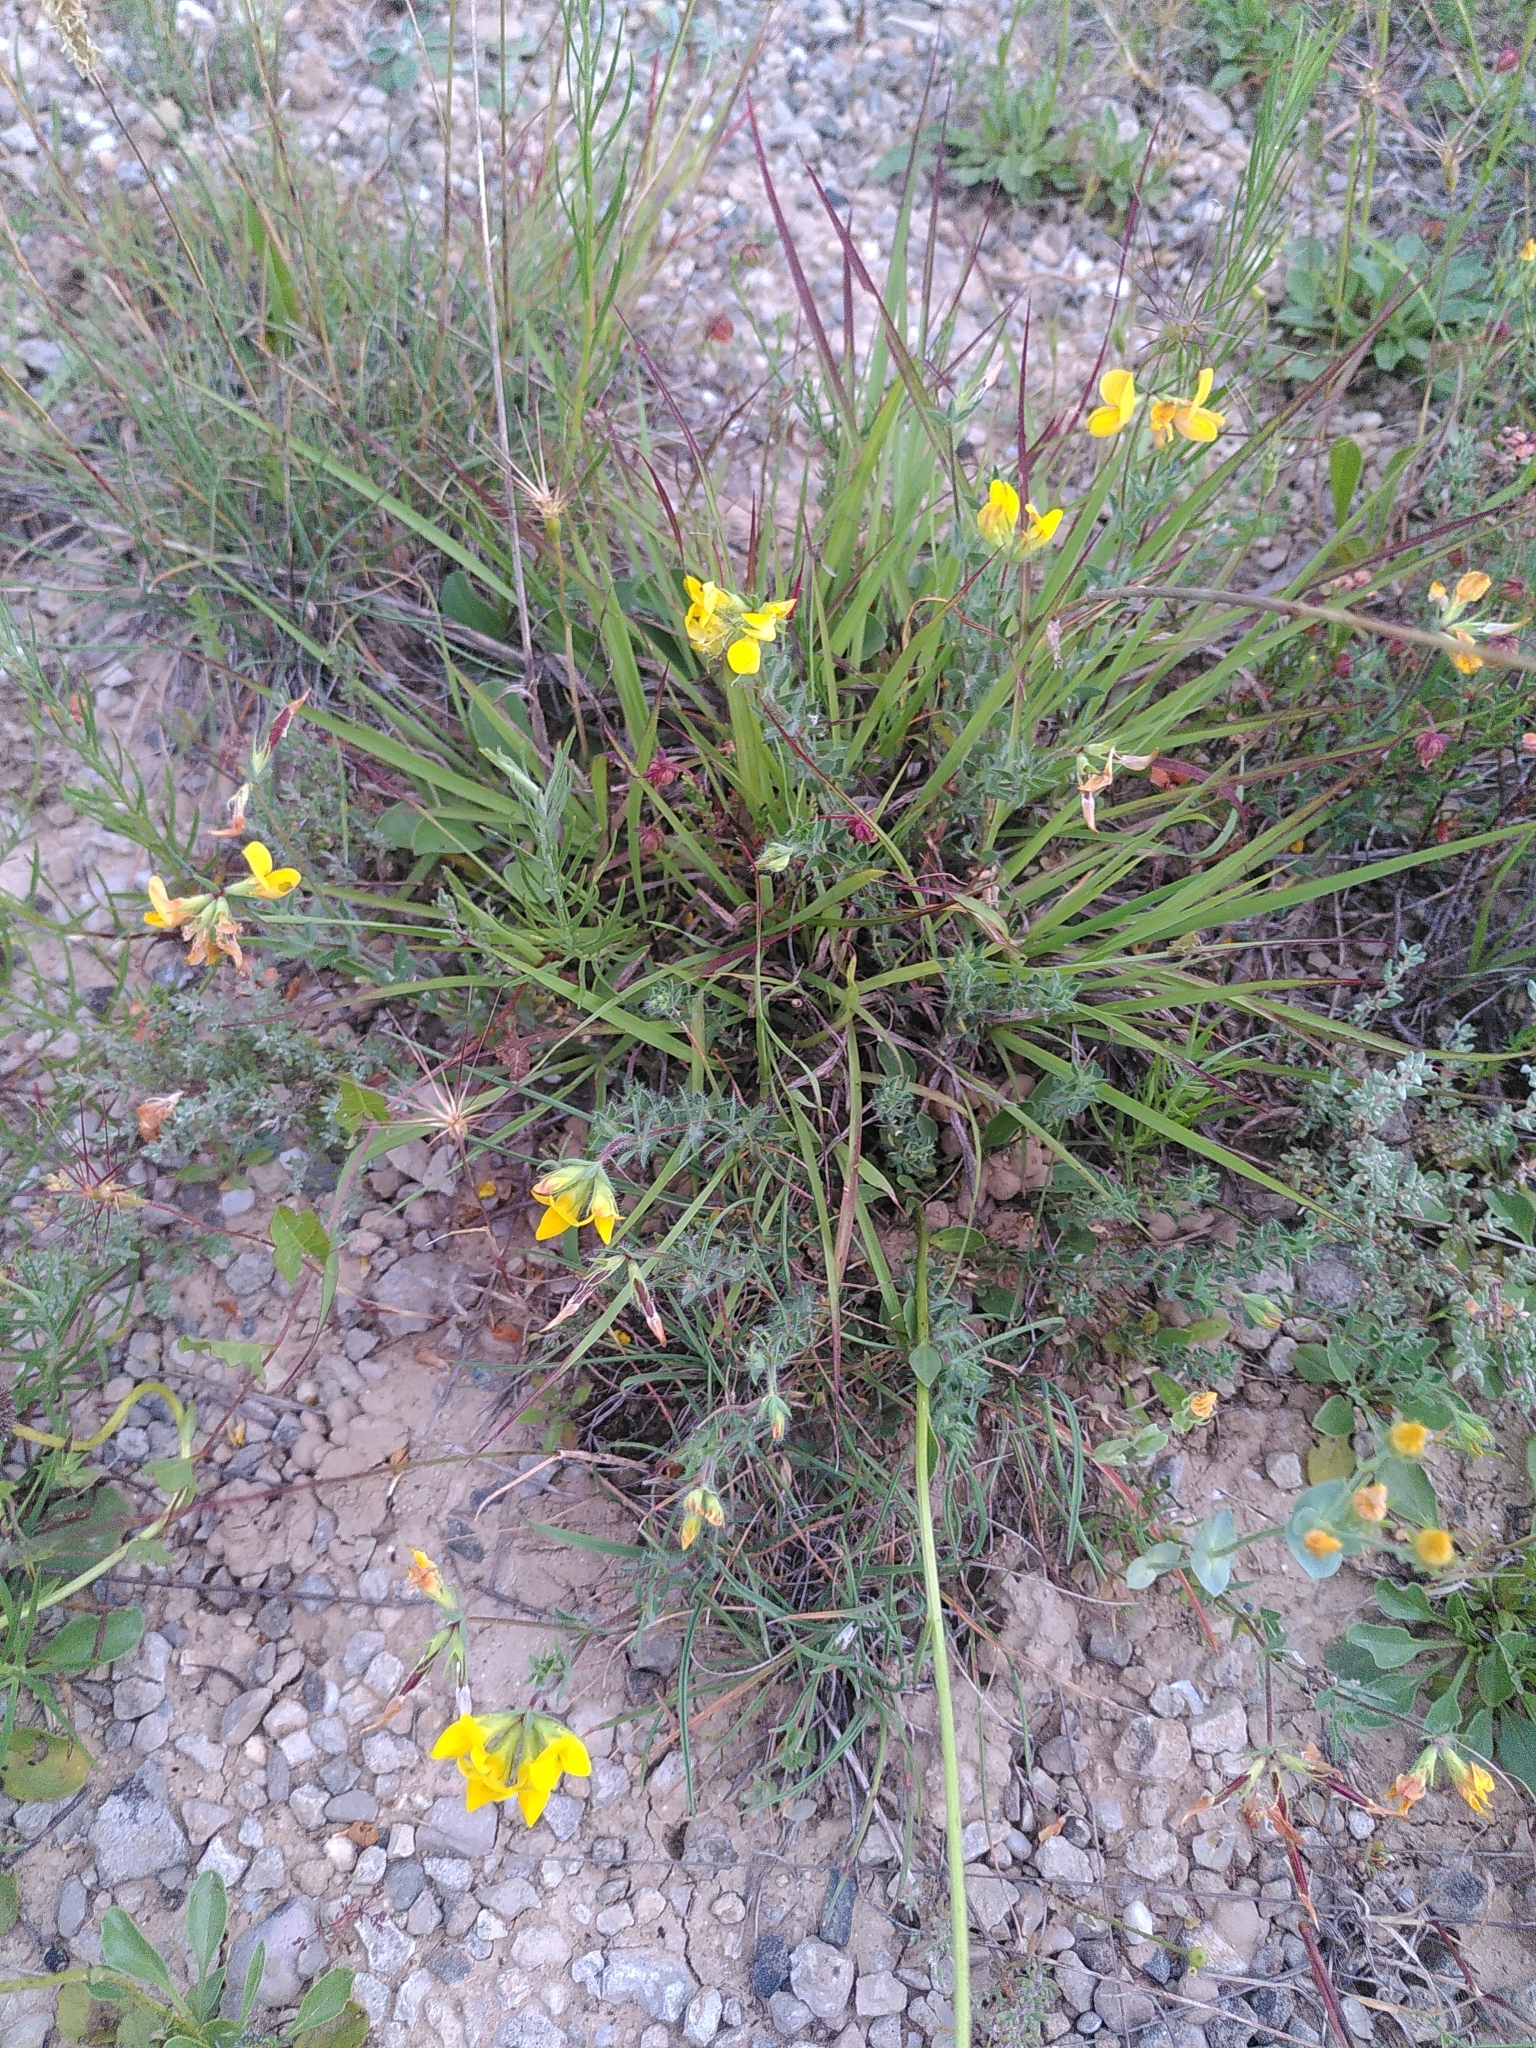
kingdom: Plantae
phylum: Tracheophyta
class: Magnoliopsida
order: Fabales
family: Fabaceae
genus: Lotus
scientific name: Lotus corniculatus
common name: Common bird's-foot-trefoil
